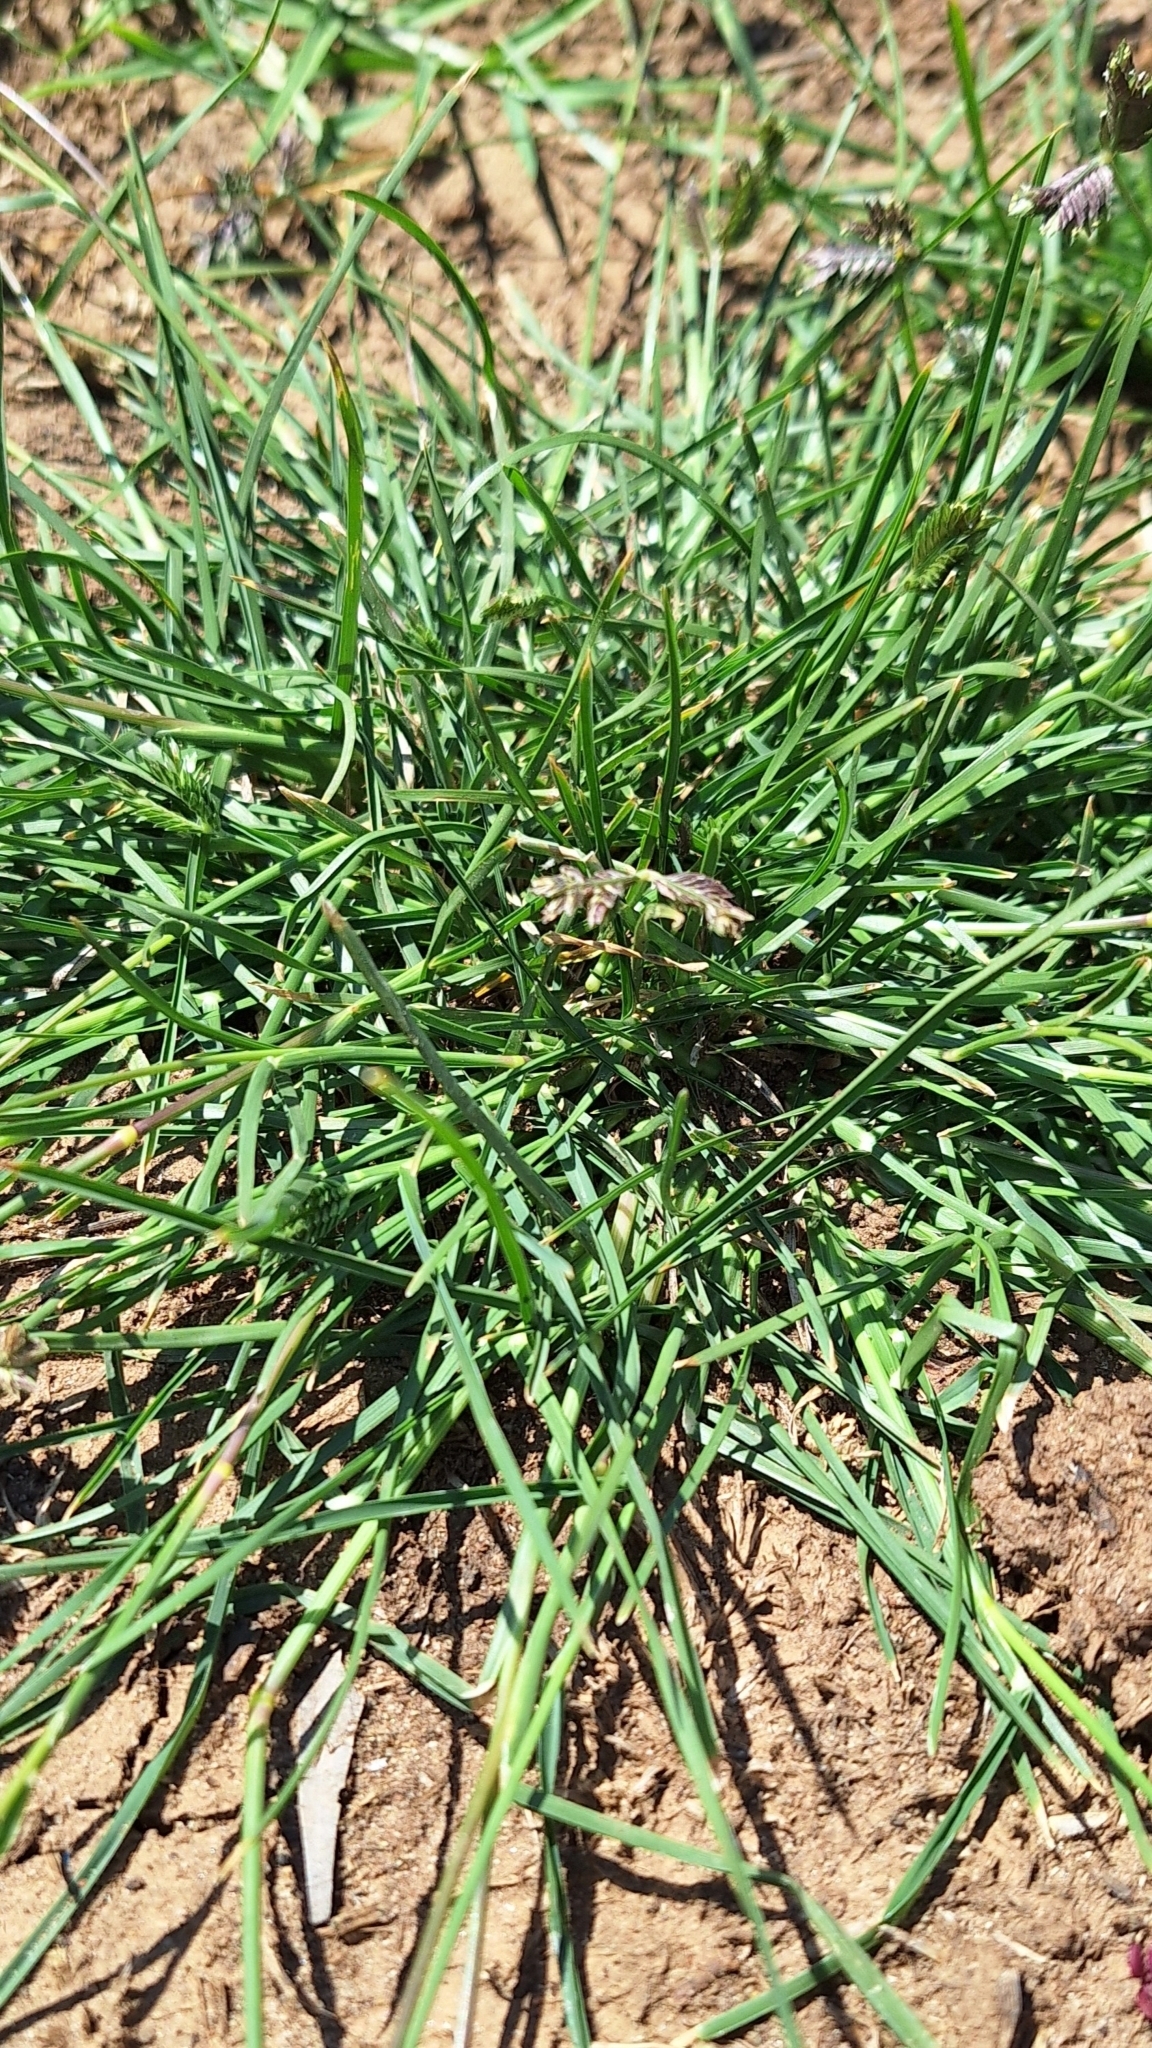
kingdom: Plantae
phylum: Tracheophyta
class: Liliopsida
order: Poales
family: Poaceae
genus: Eleusine
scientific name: Eleusine tristachya
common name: American yard-grass
